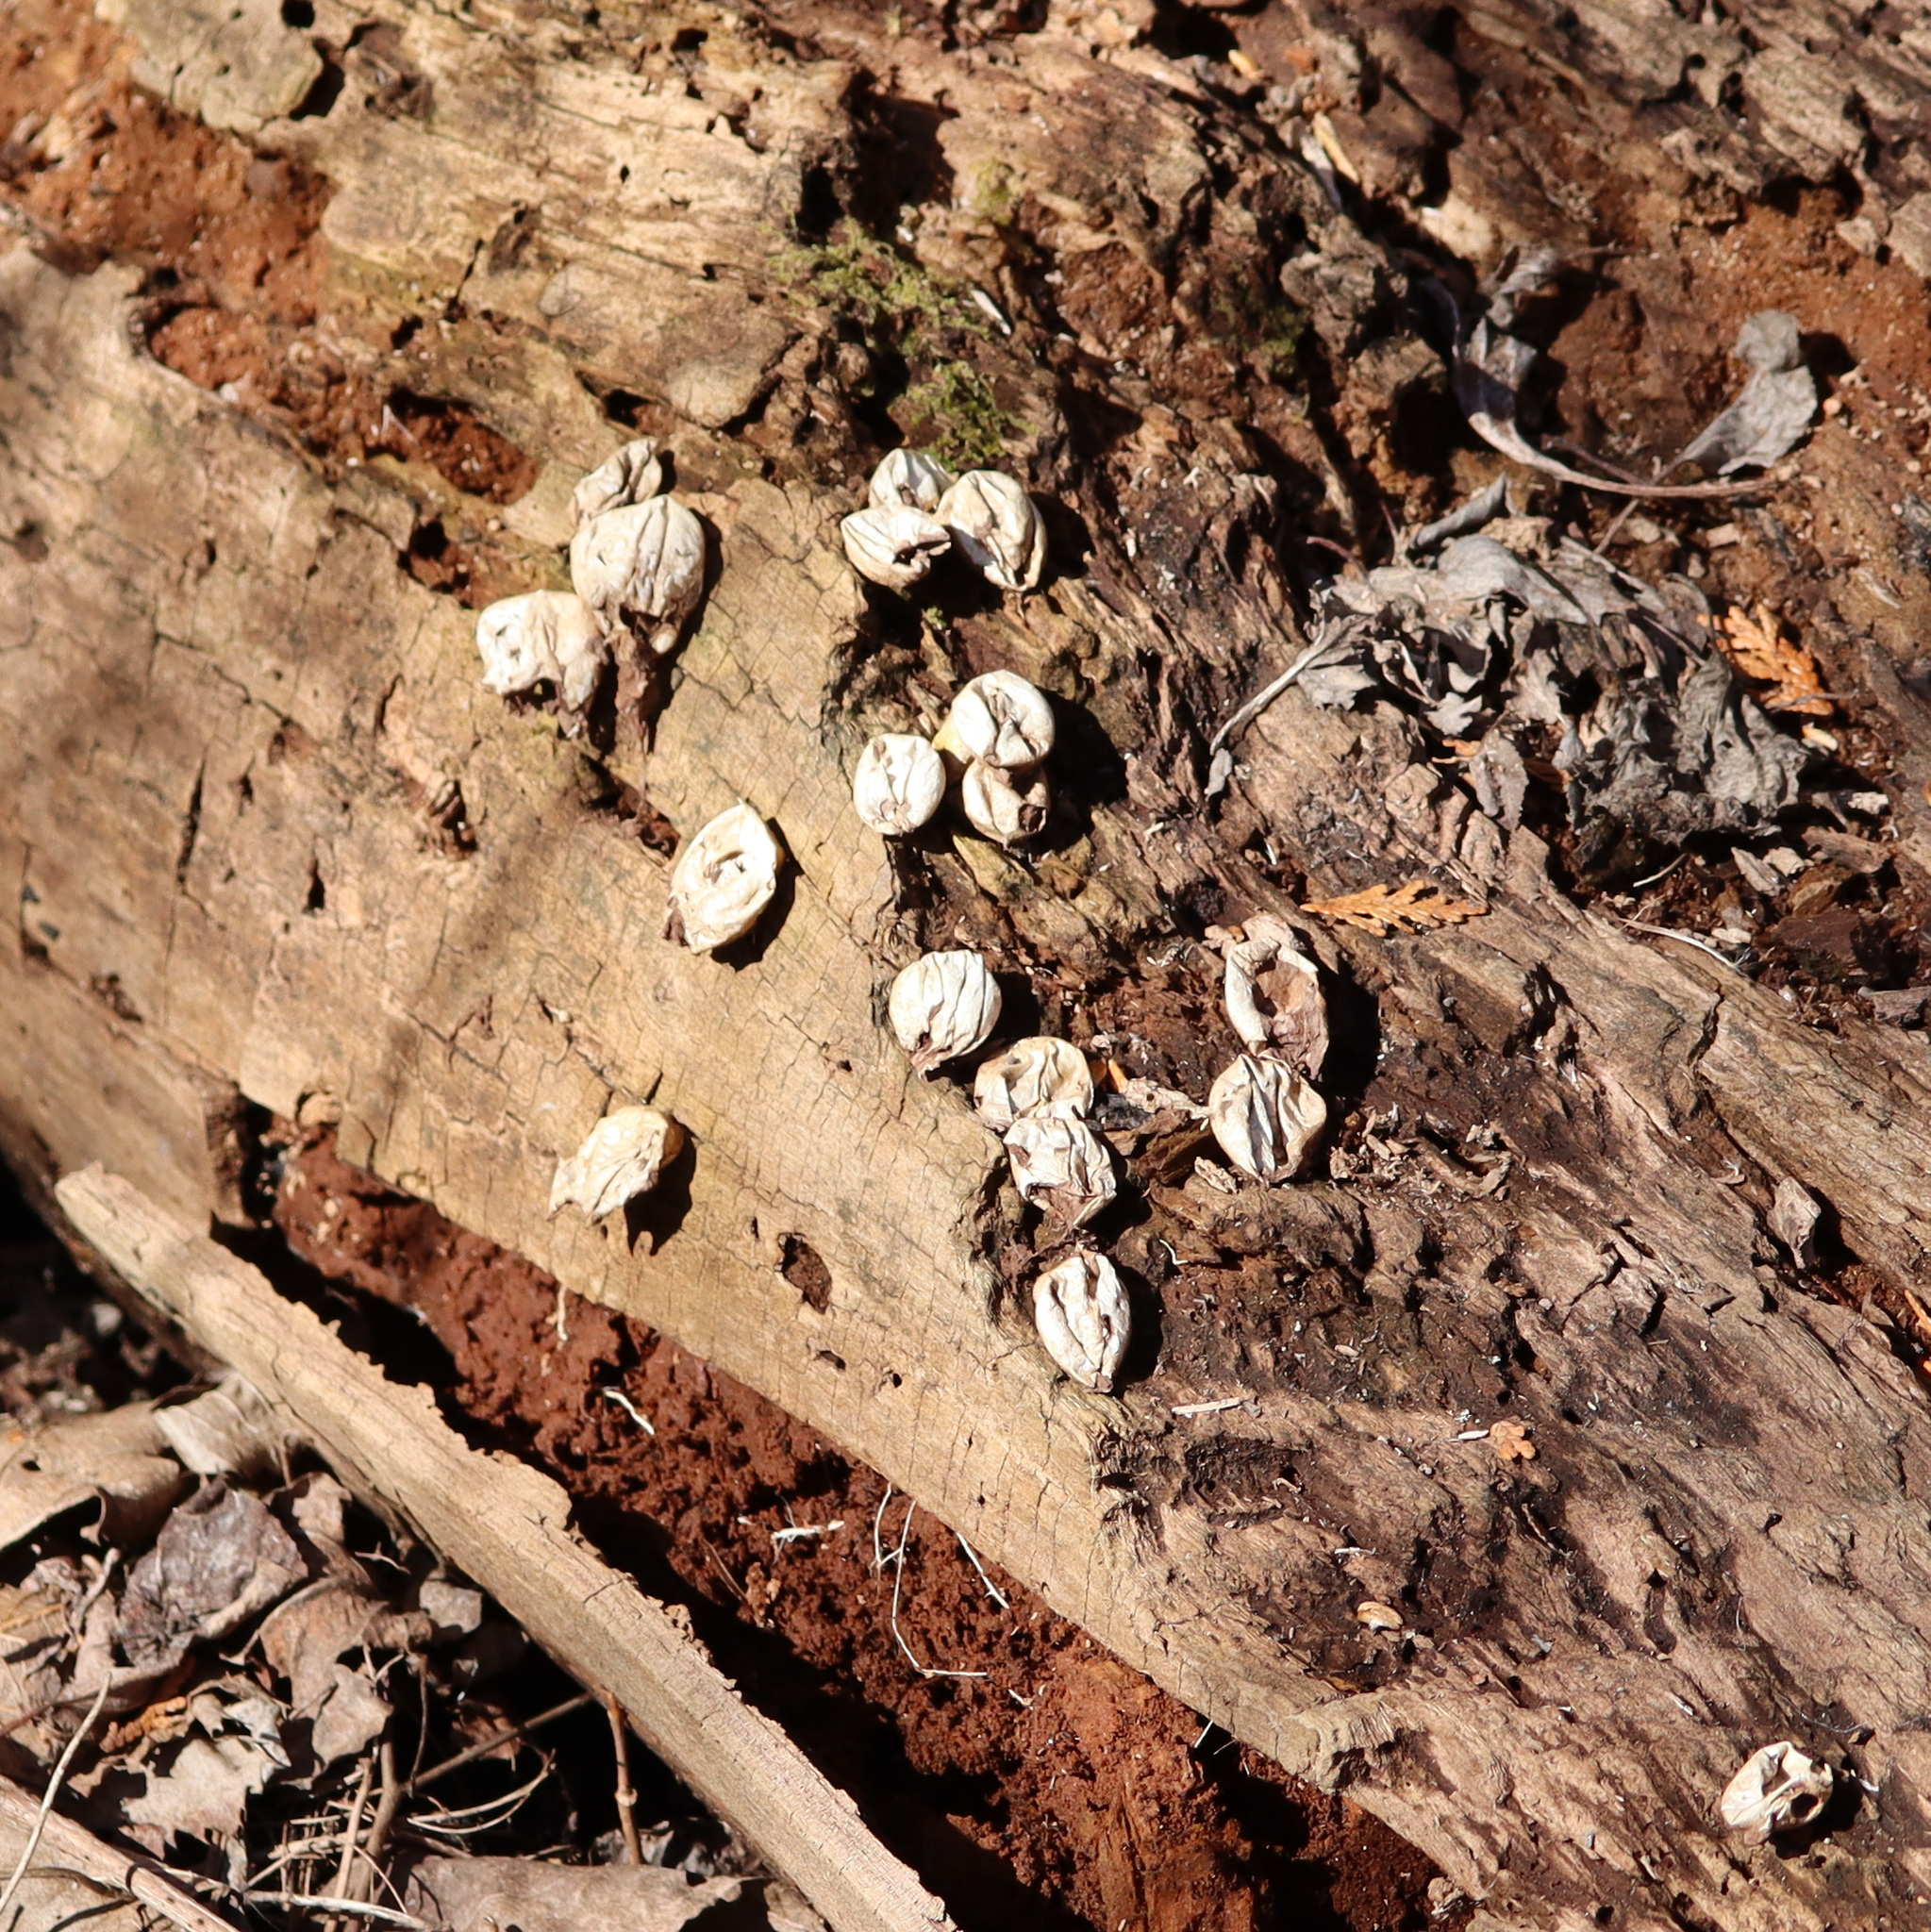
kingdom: Fungi
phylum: Basidiomycota
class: Agaricomycetes
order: Agaricales
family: Lycoperdaceae
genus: Apioperdon
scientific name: Apioperdon pyriforme
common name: Pear-shaped puffball
